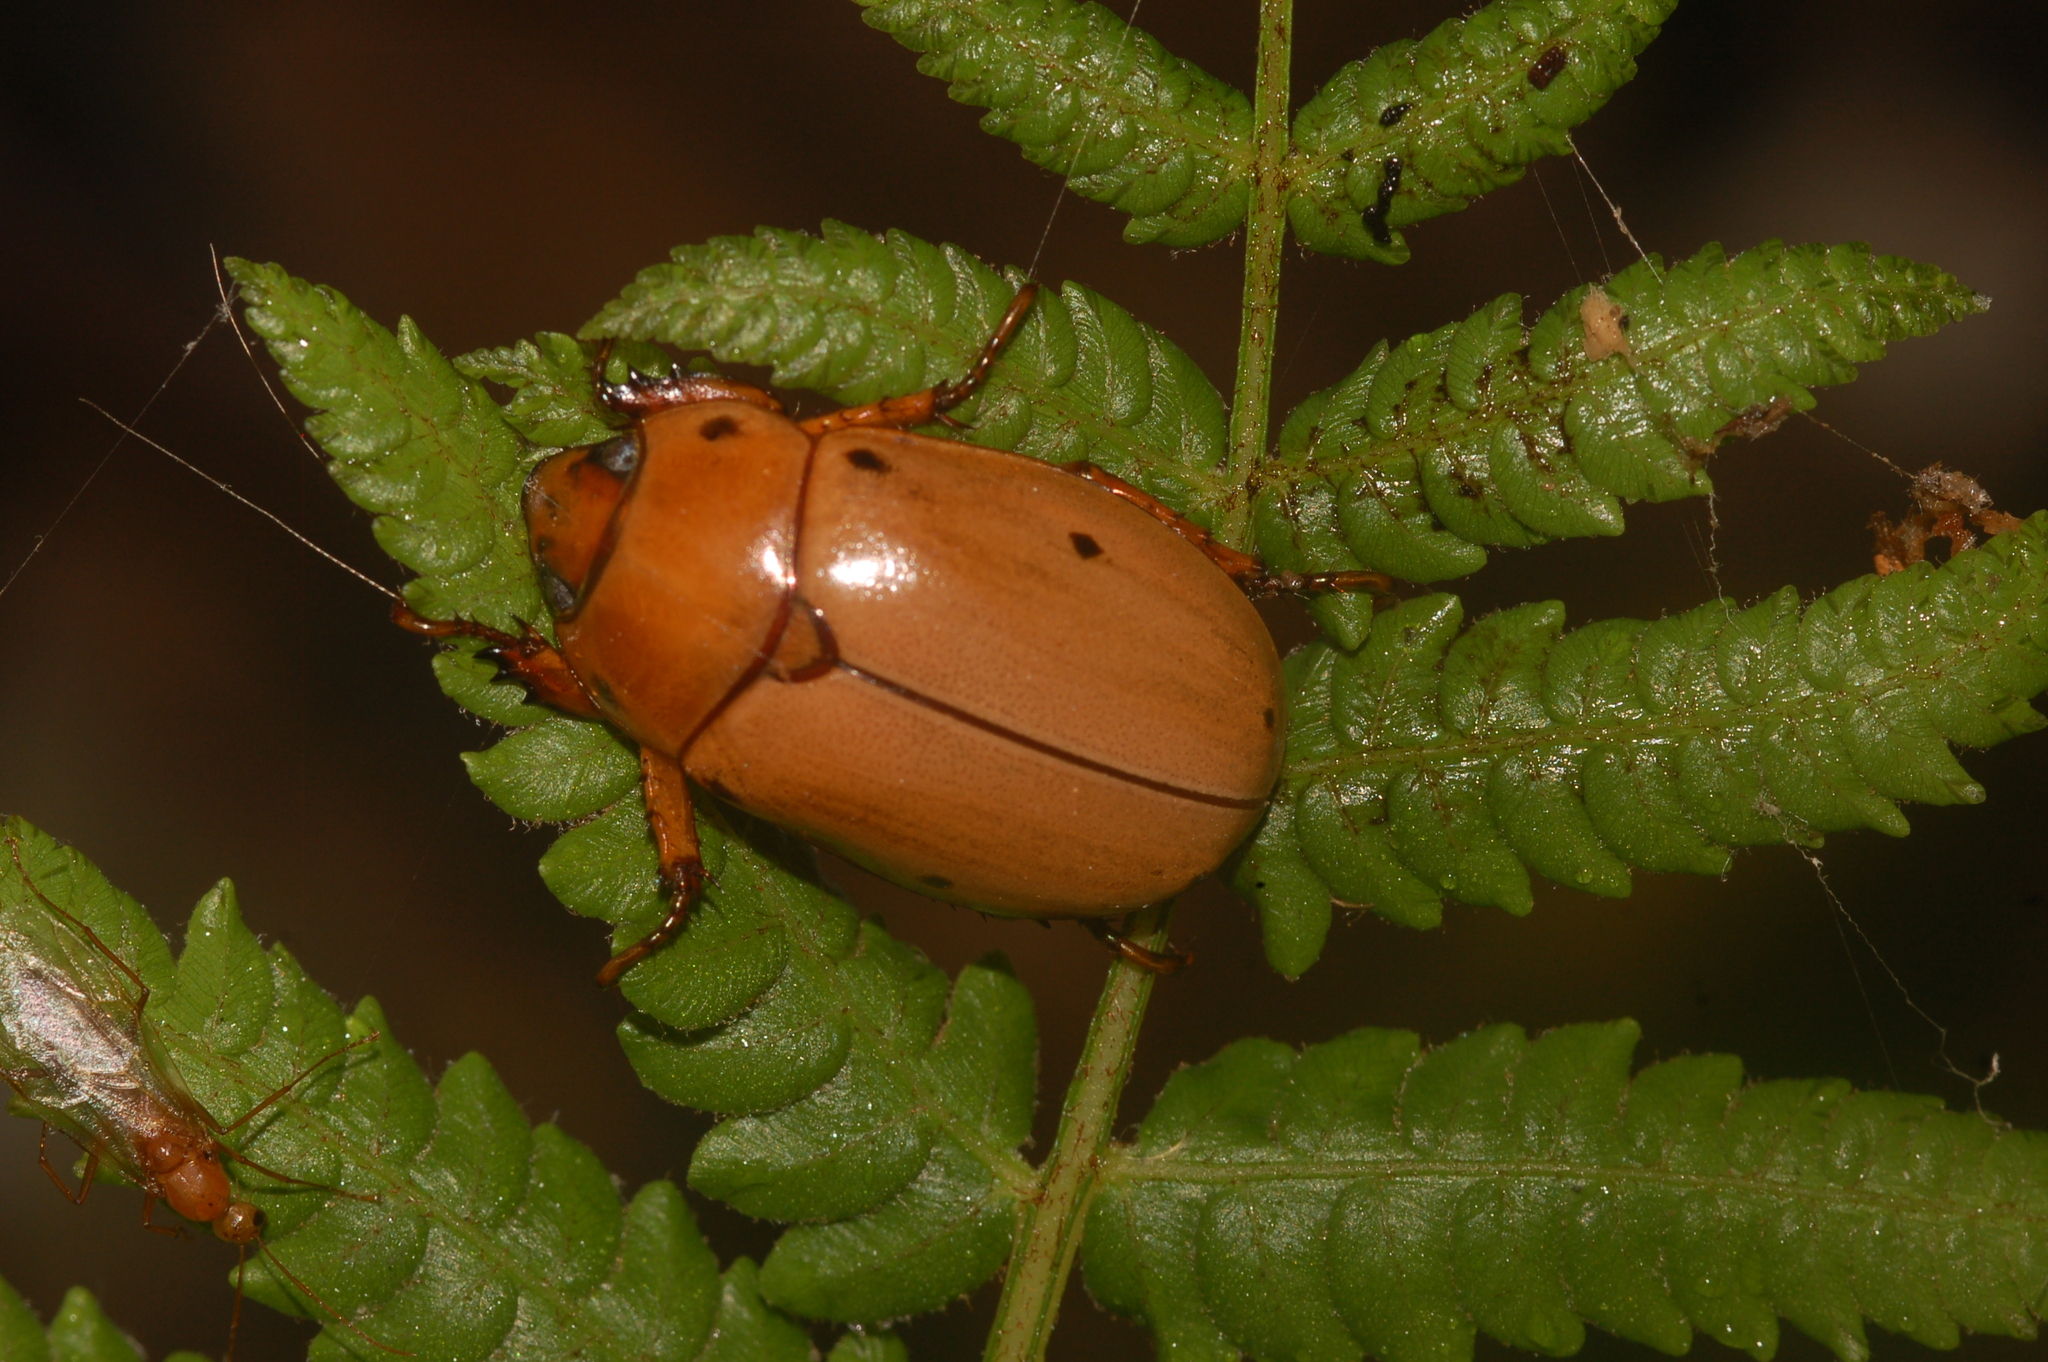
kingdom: Animalia
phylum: Arthropoda
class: Insecta
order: Coleoptera
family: Scarabaeidae
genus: Pelidnota
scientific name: Pelidnota punctata
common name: Grapevine beetle
